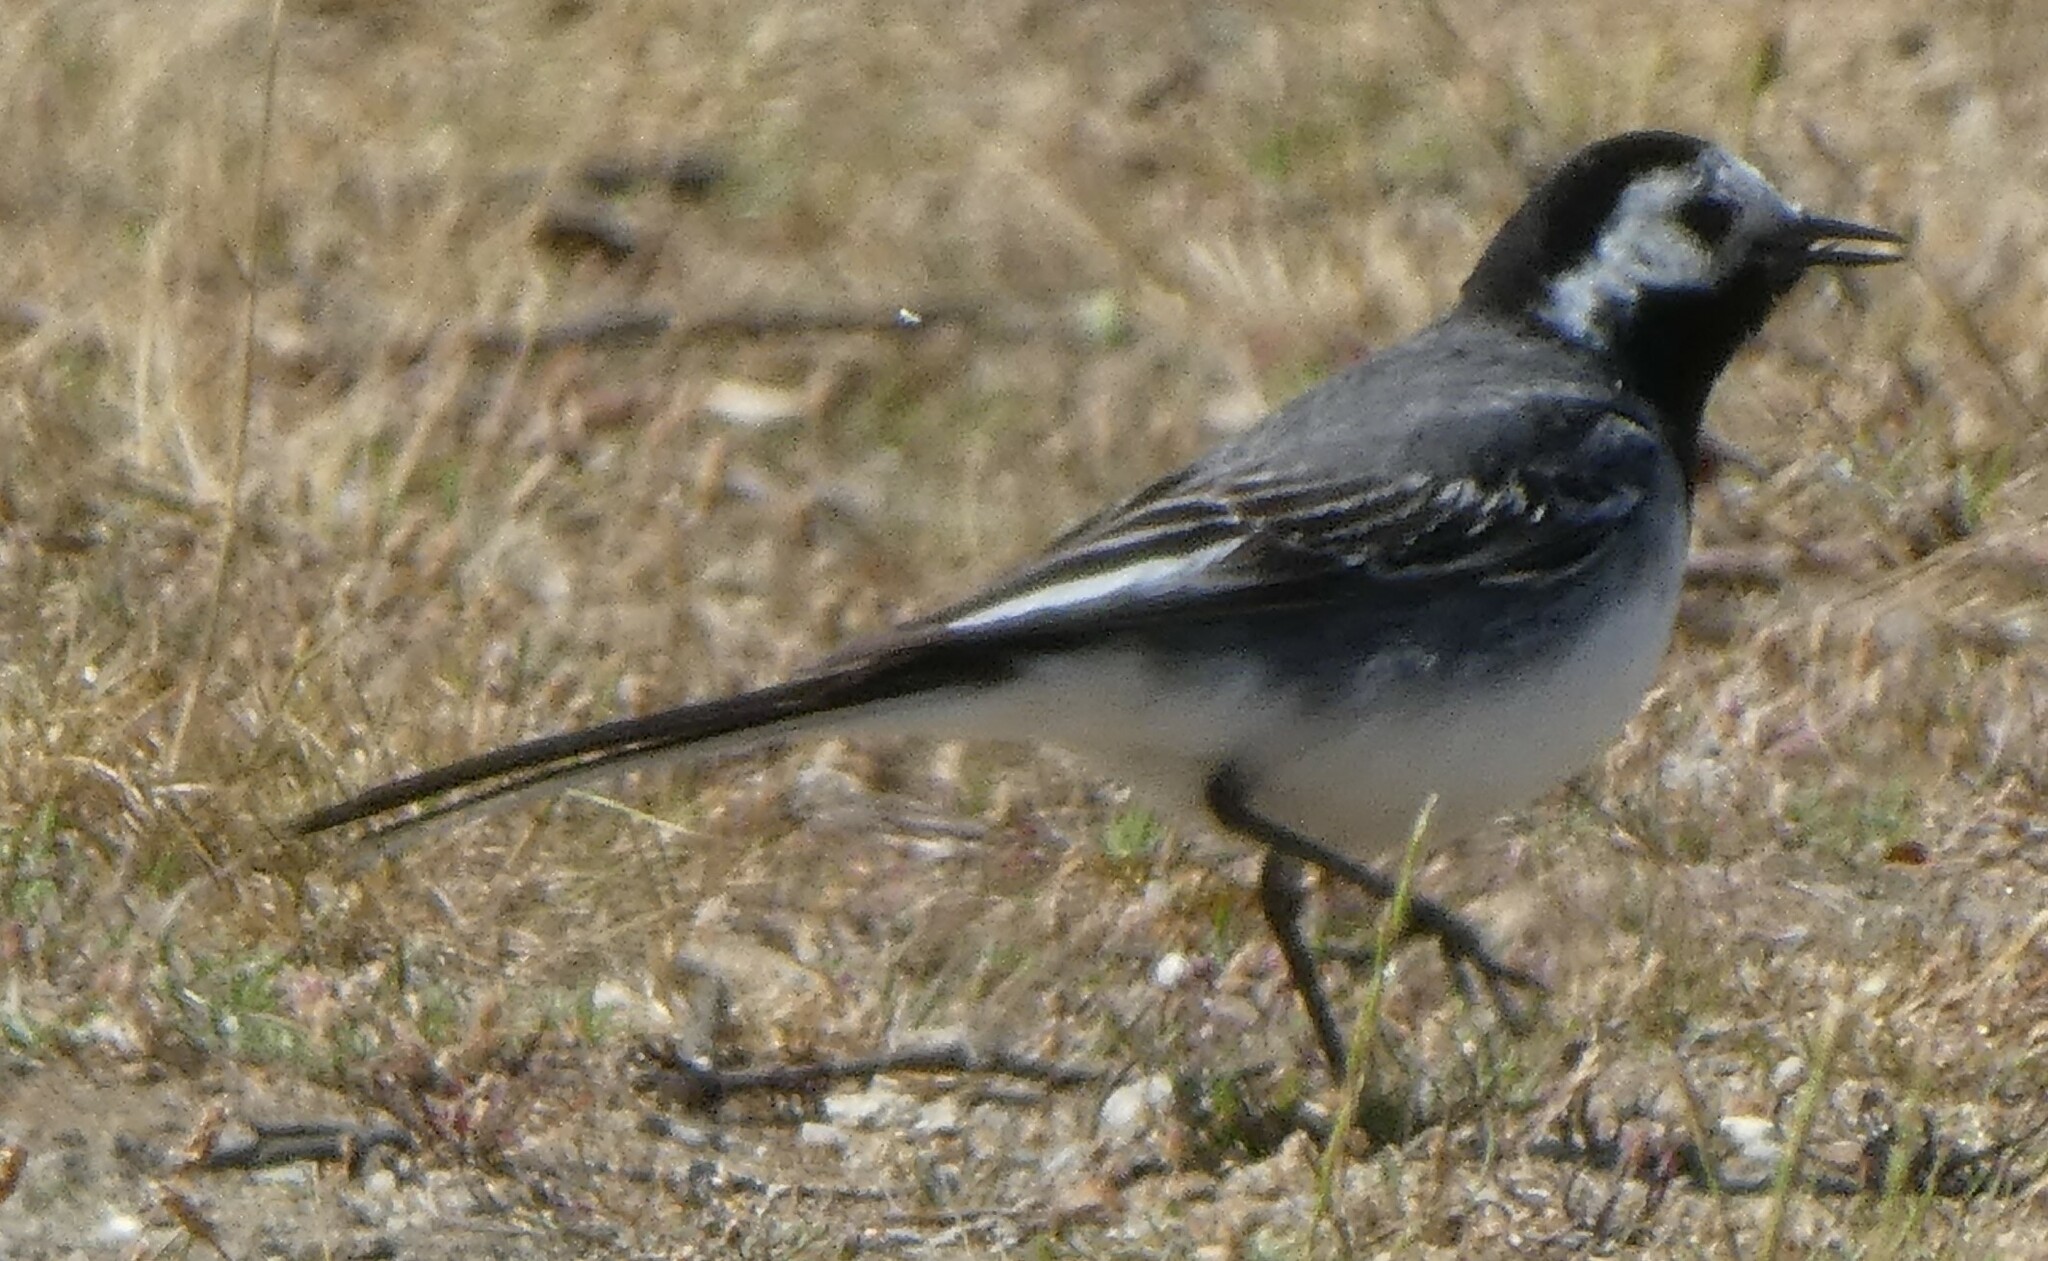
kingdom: Animalia
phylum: Chordata
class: Aves
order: Passeriformes
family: Motacillidae
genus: Motacilla
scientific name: Motacilla alba
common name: White wagtail
